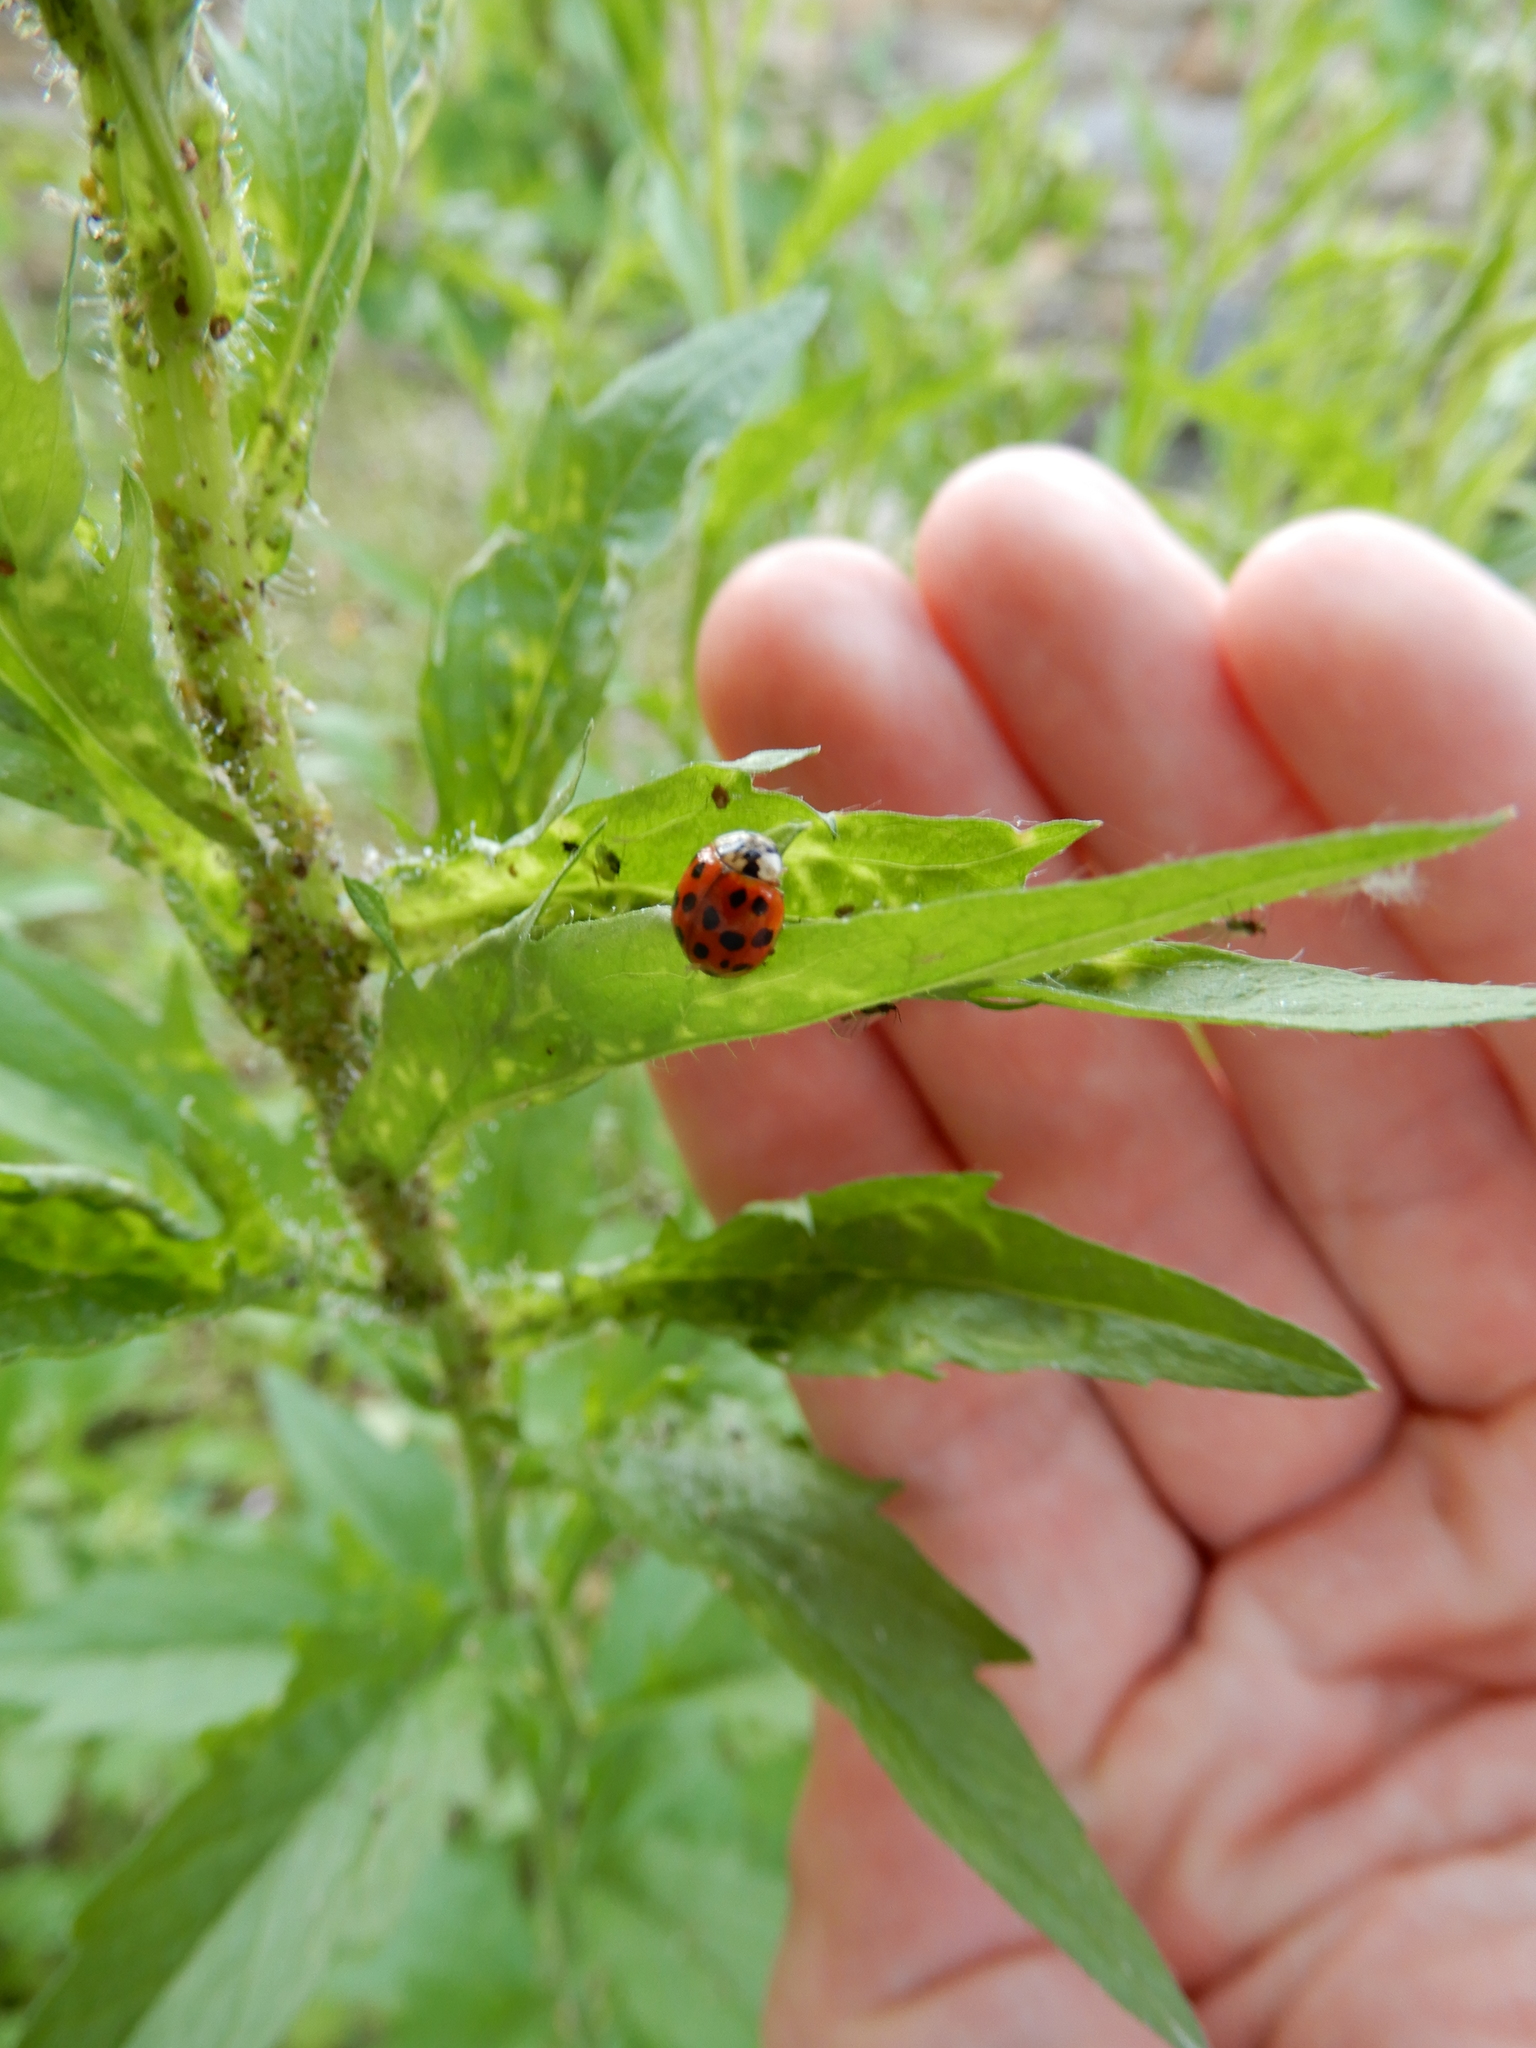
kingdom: Animalia
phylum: Arthropoda
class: Insecta
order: Coleoptera
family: Coccinellidae
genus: Harmonia
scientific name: Harmonia axyridis
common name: Harlequin ladybird
